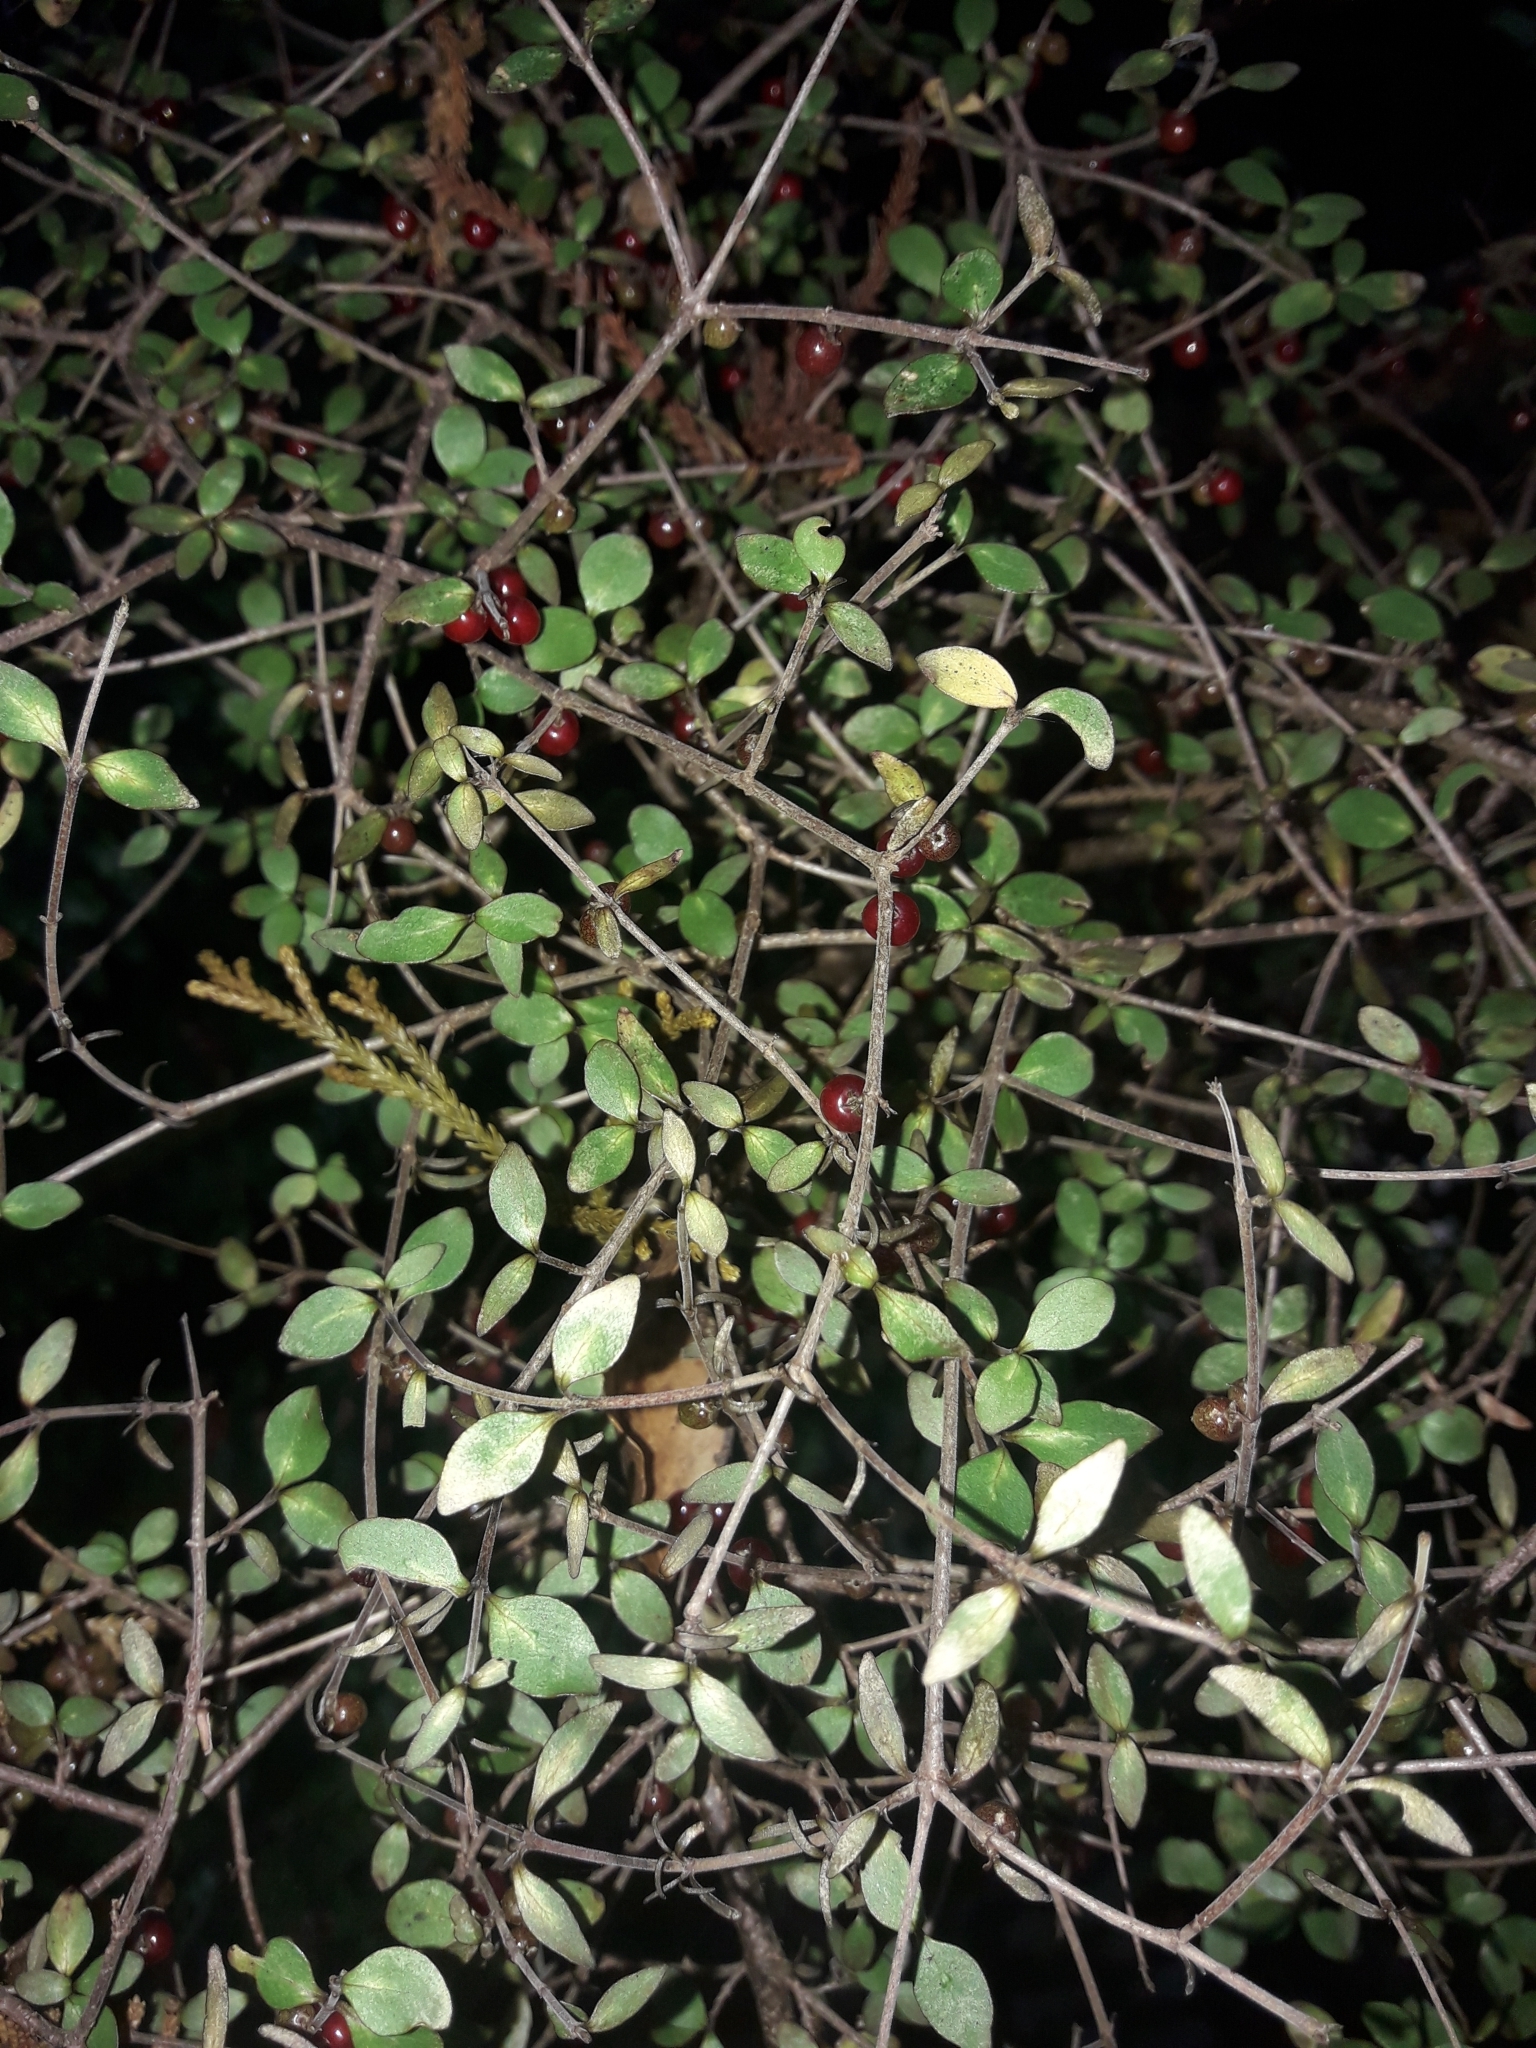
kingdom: Plantae
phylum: Tracheophyta
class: Magnoliopsida
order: Gentianales
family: Rubiaceae
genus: Coprosma
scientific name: Coprosma rhamnoides
